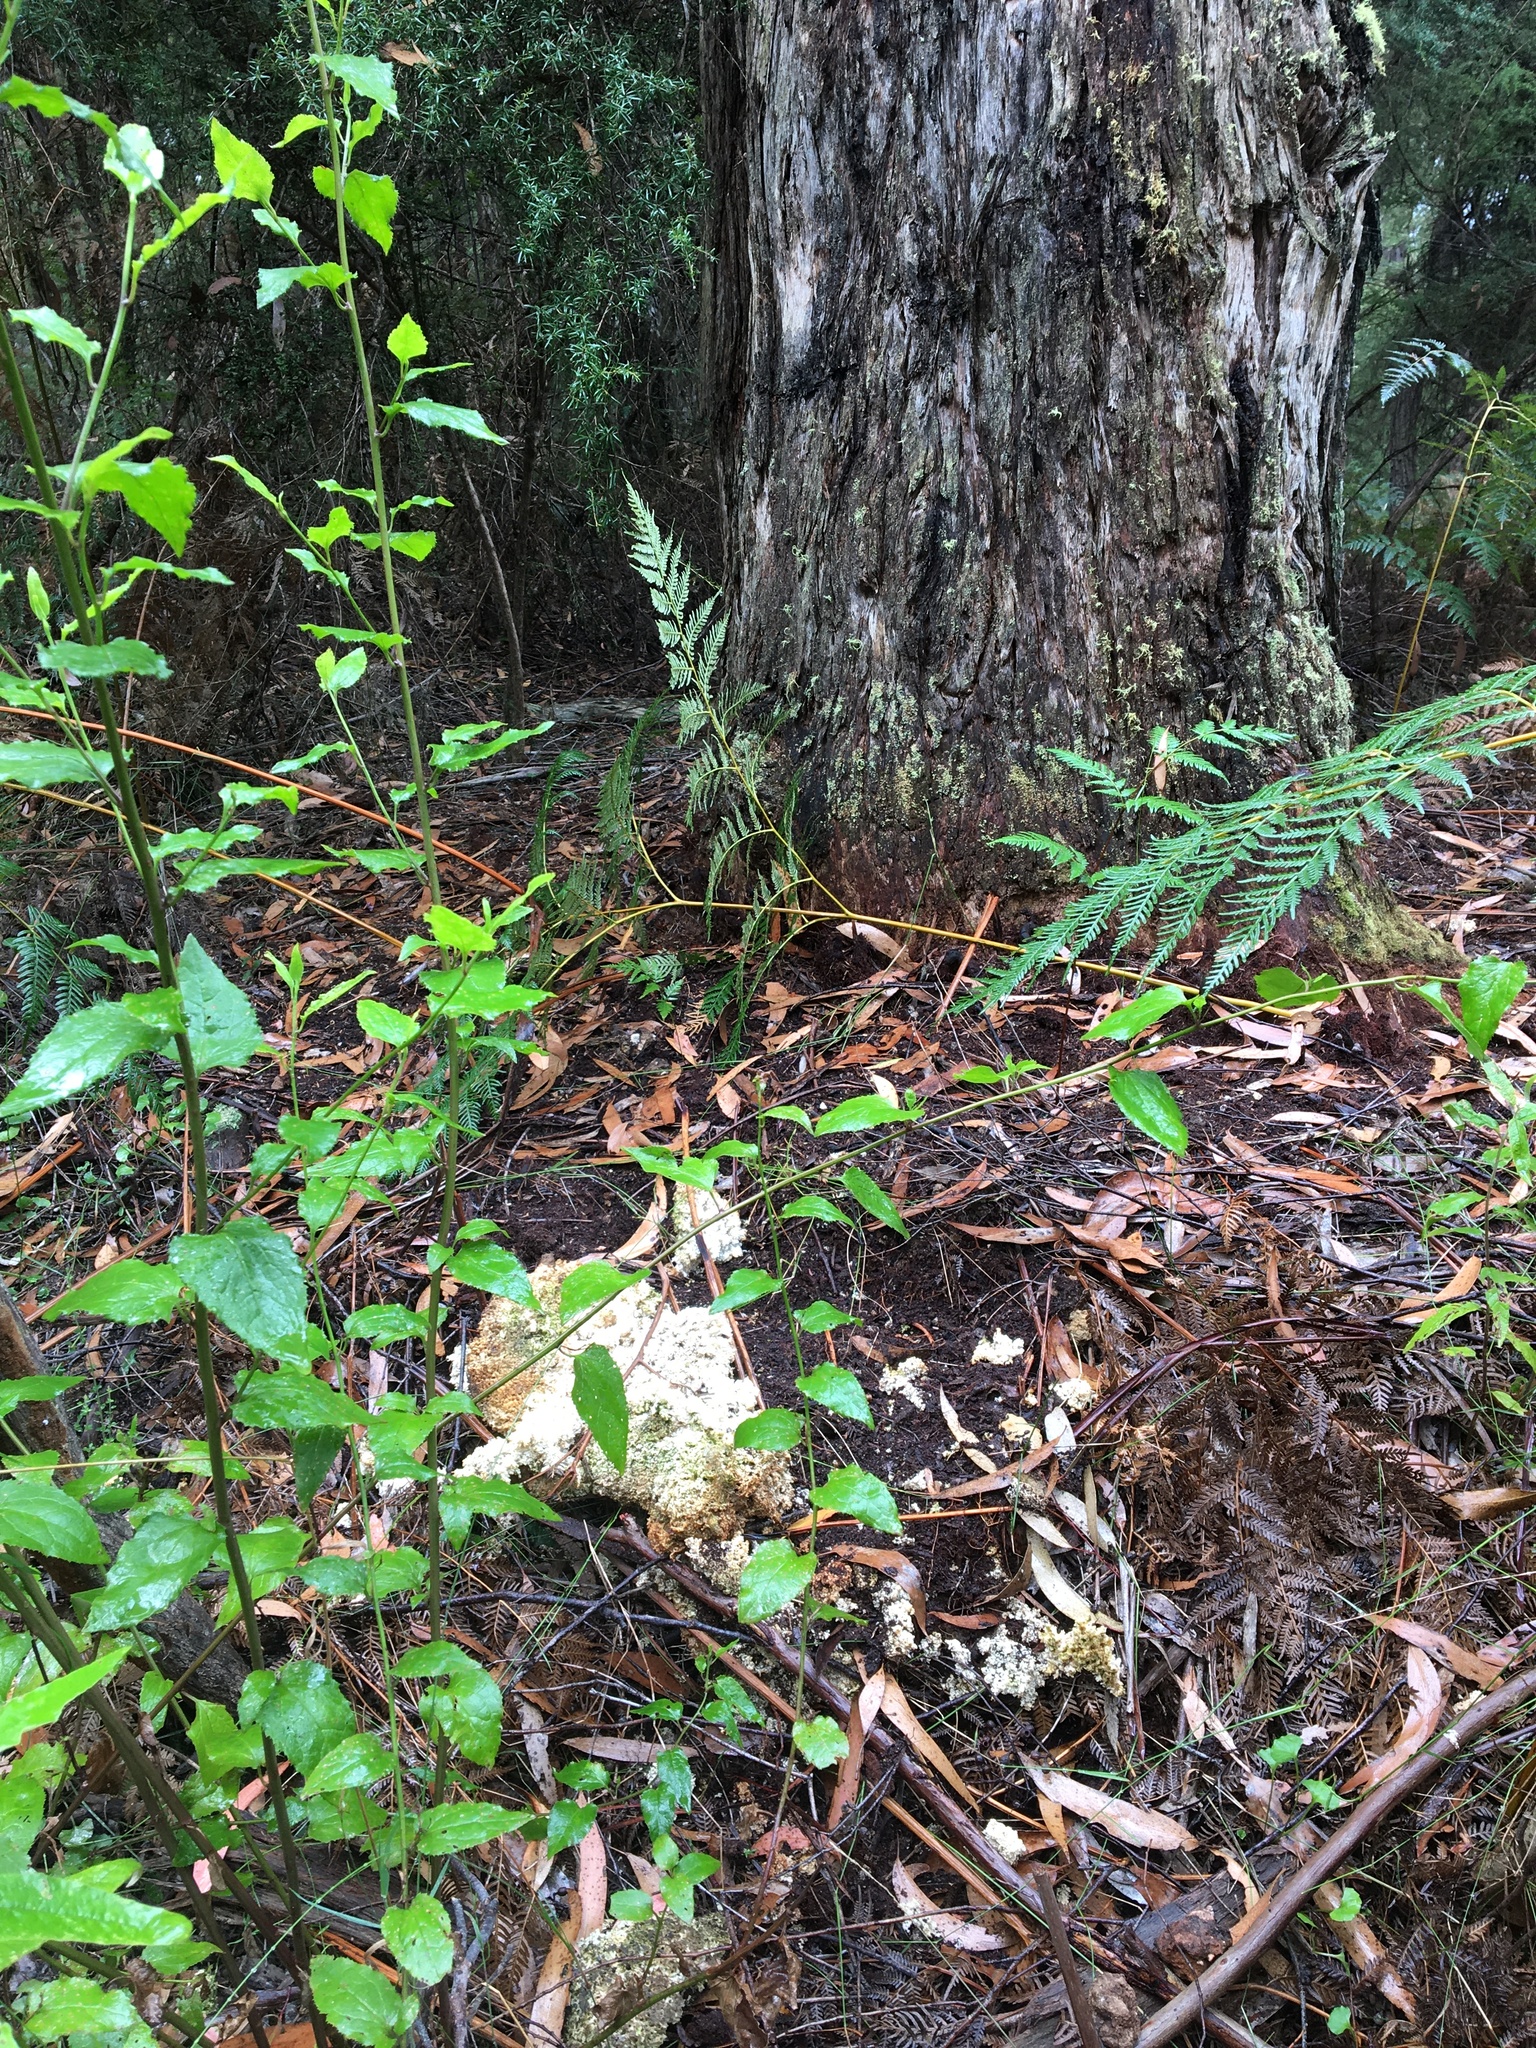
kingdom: Fungi
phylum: Basidiomycota
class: Agaricomycetes
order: Polyporales
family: Laetiporaceae
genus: Laetiporus
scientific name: Laetiporus portentosus
